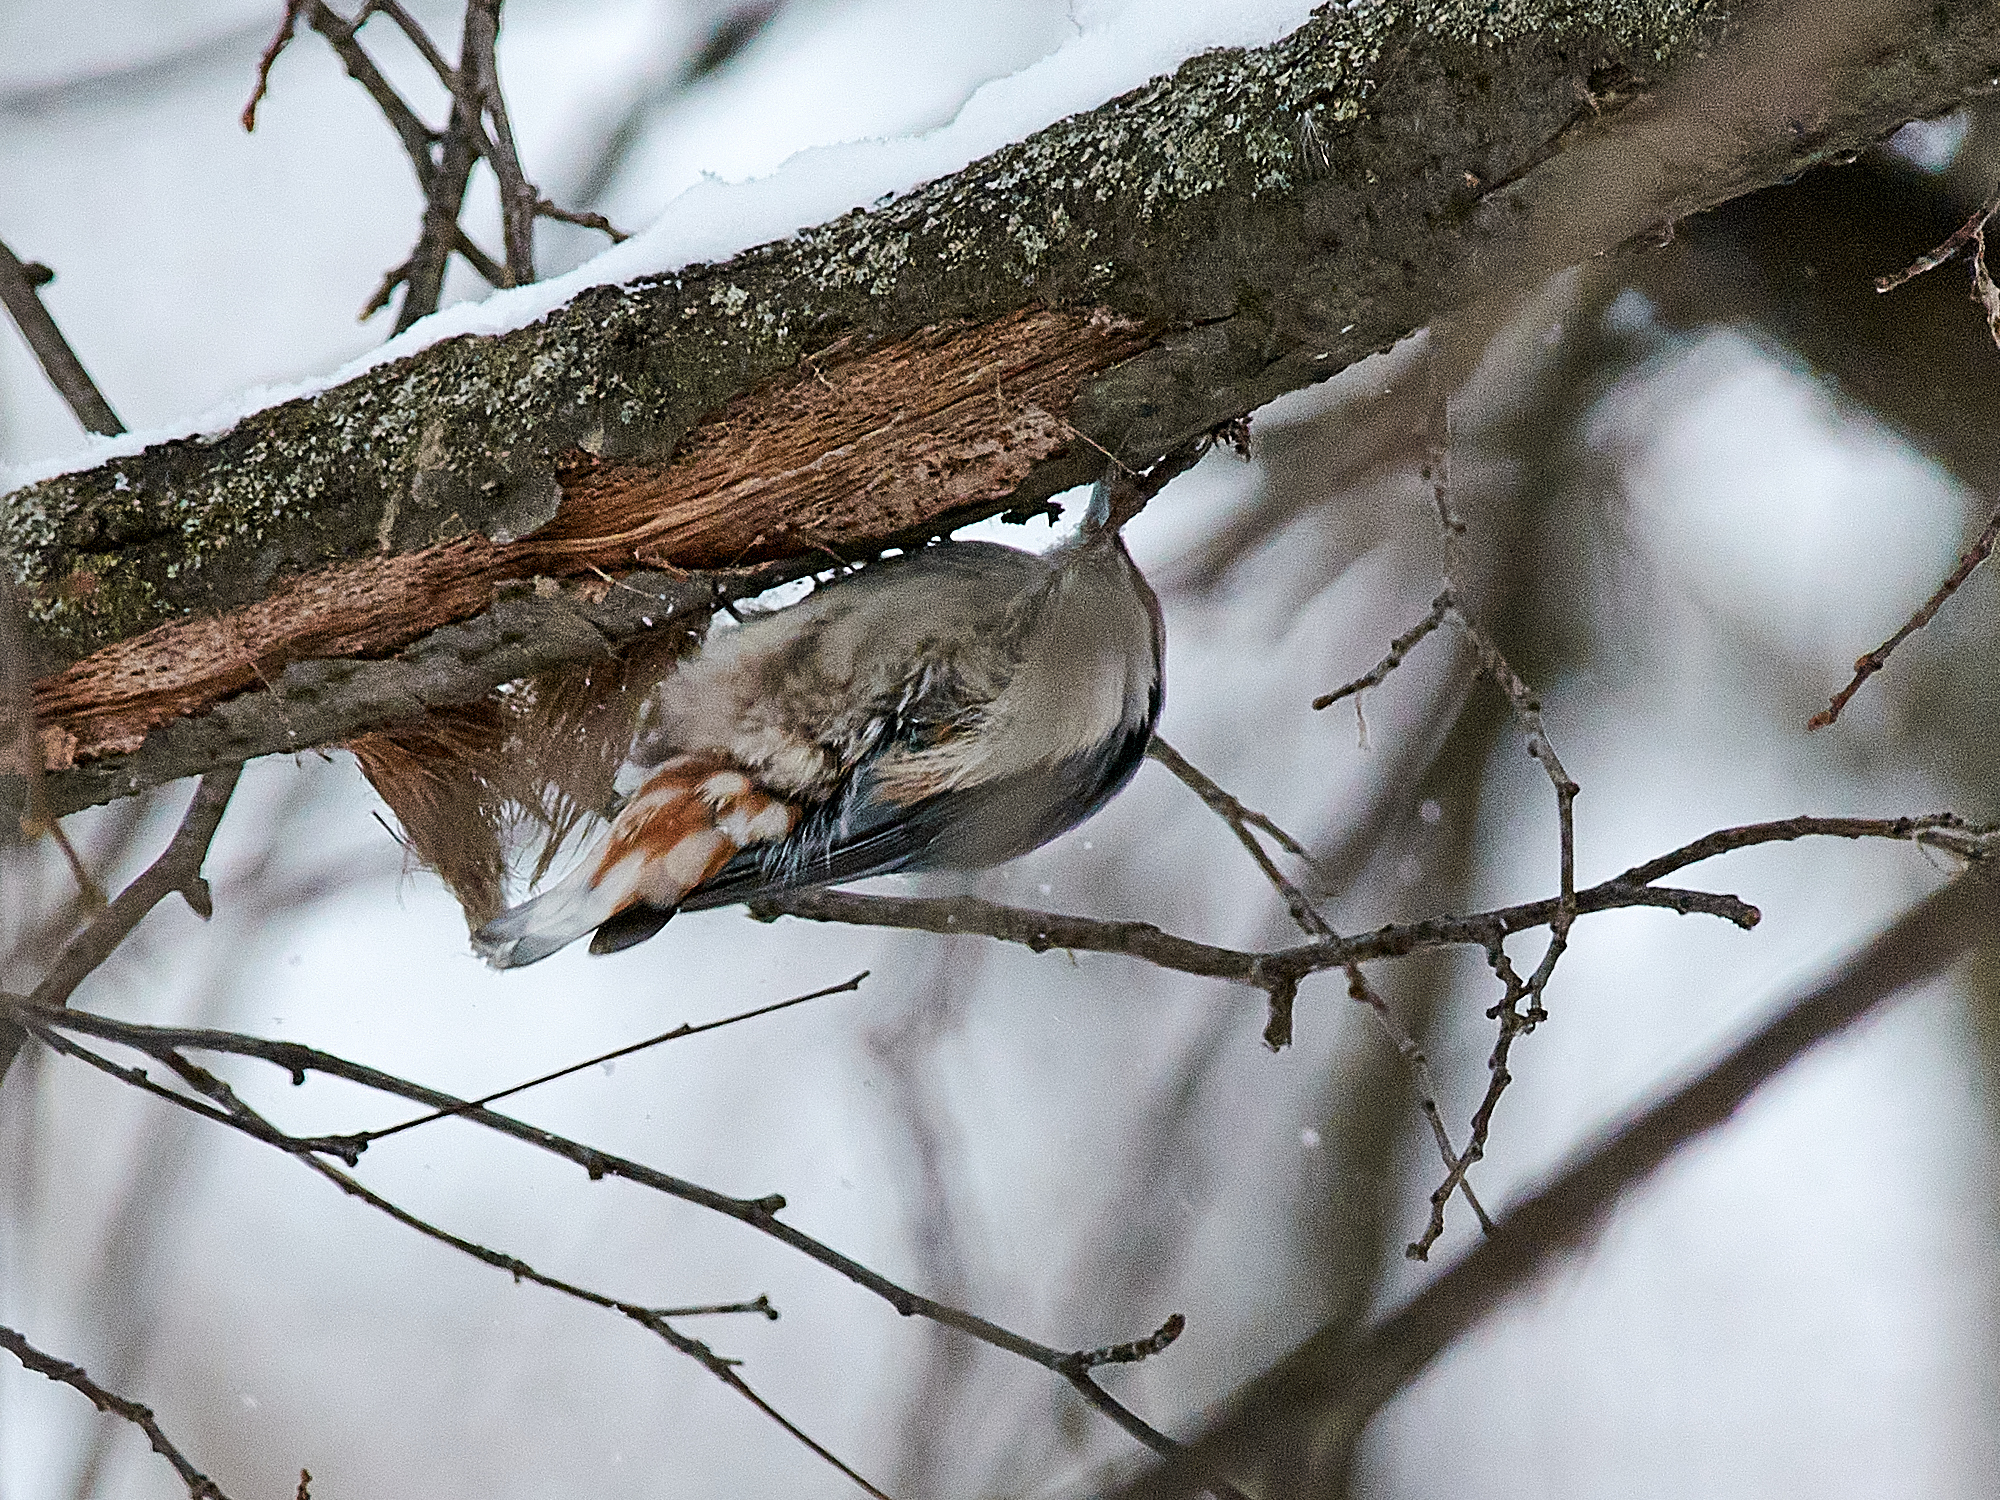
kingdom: Animalia
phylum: Chordata
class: Aves
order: Passeriformes
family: Sittidae
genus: Sitta
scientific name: Sitta europaea
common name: Eurasian nuthatch
